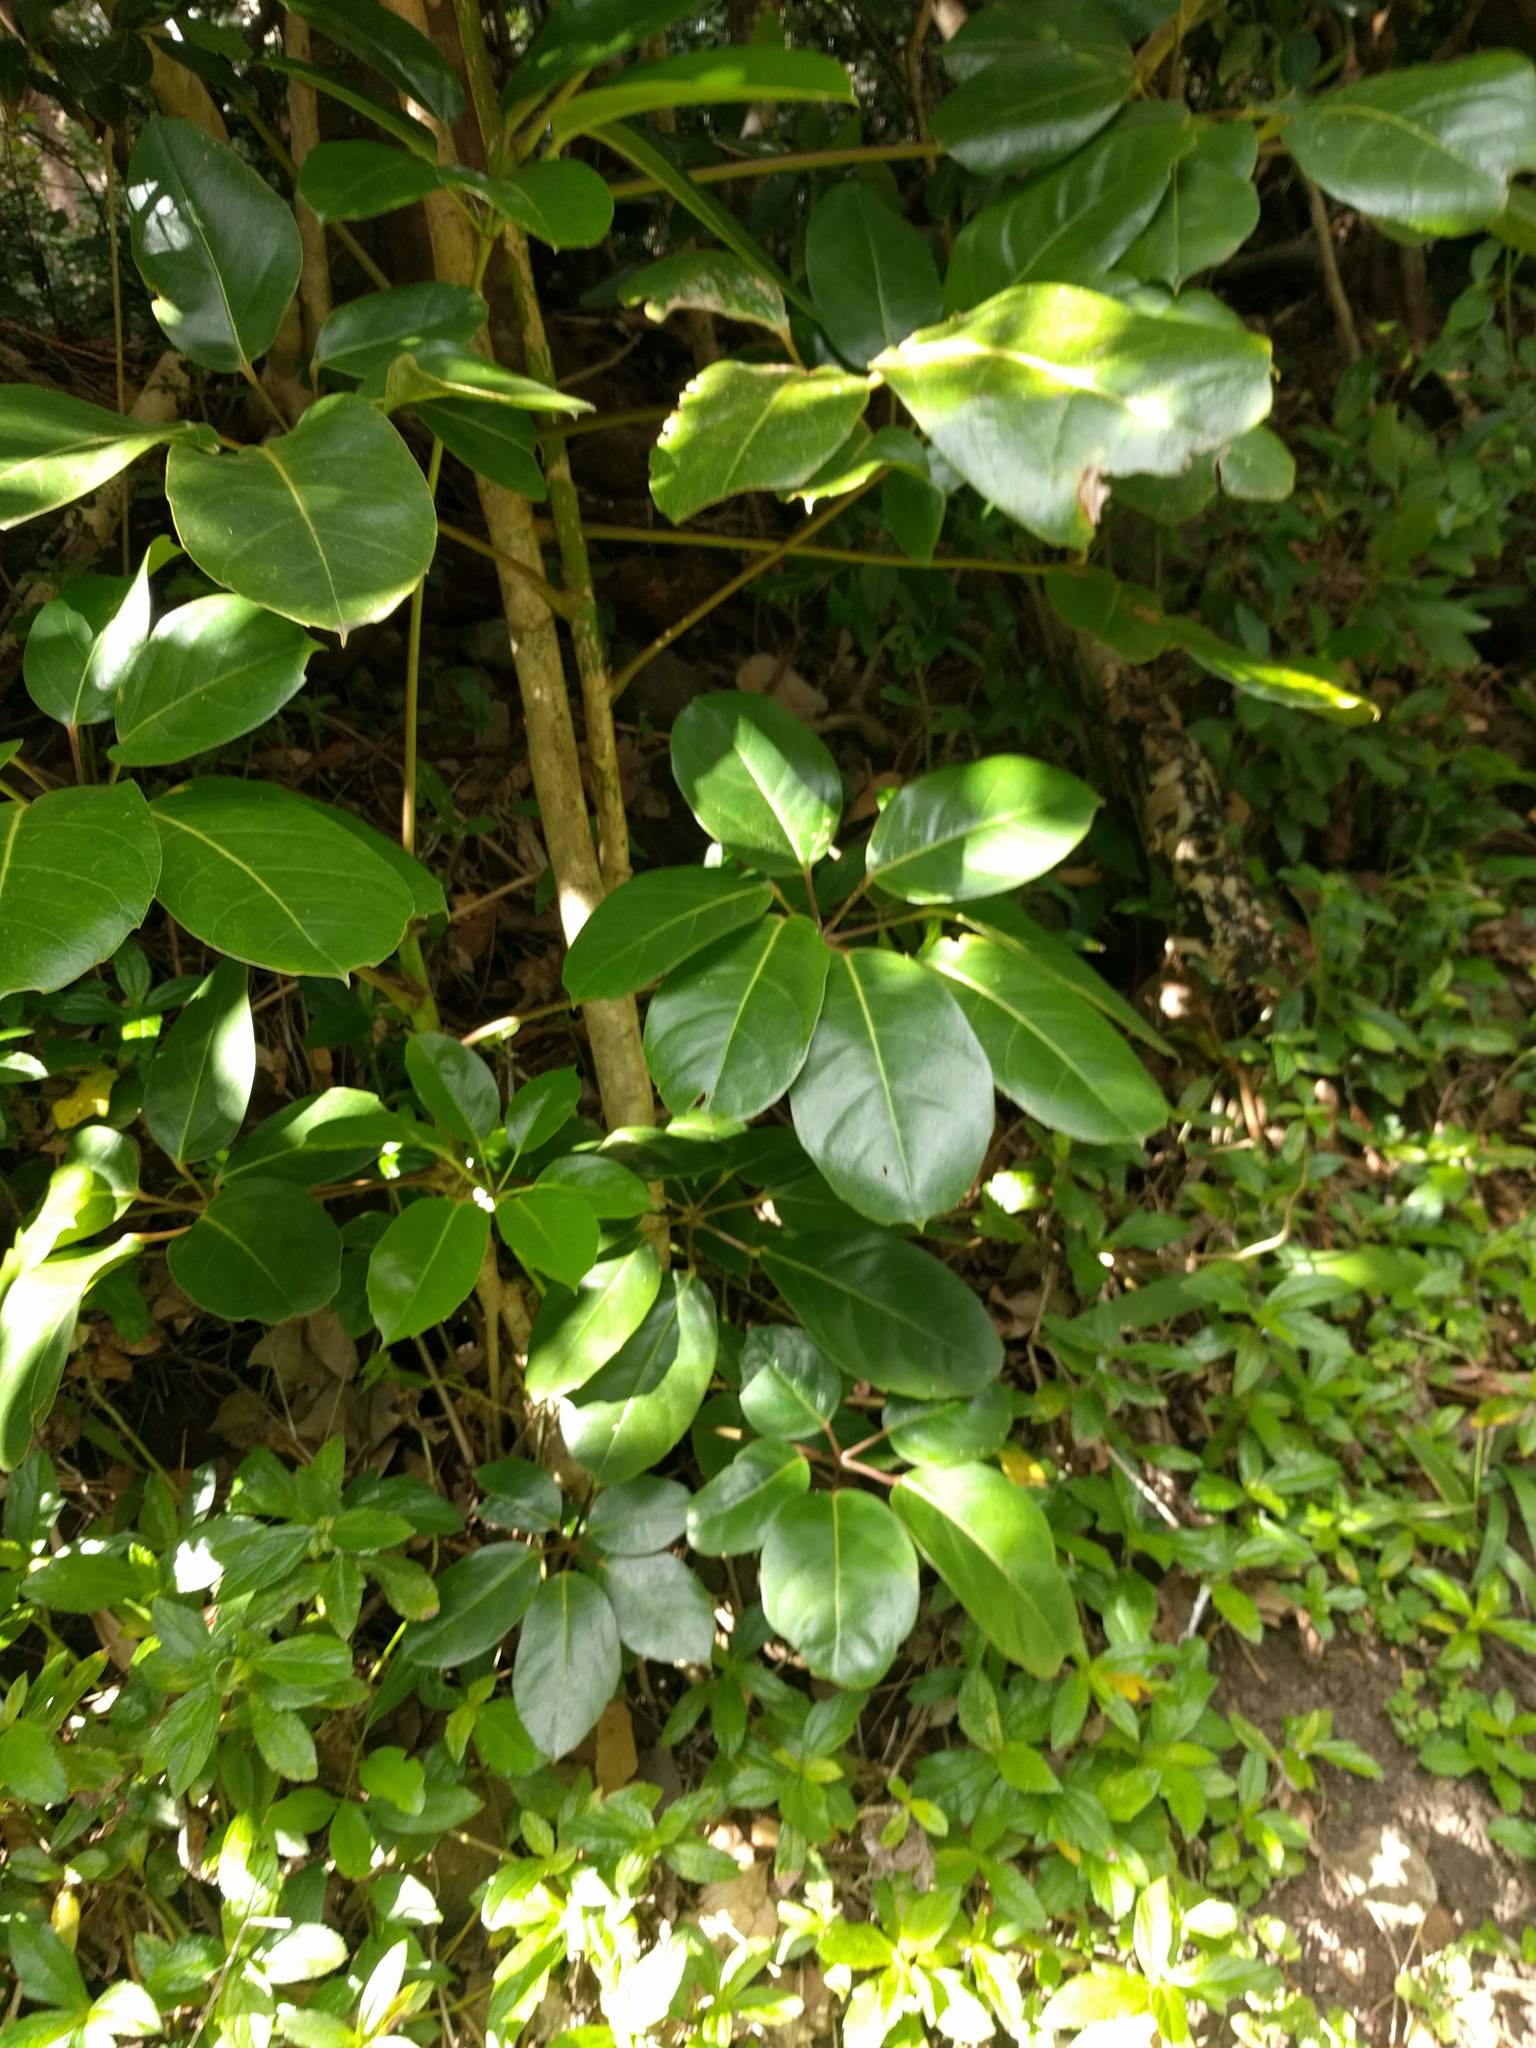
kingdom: Plantae
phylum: Tracheophyta
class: Magnoliopsida
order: Apiales
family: Araliaceae
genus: Heptapleurum
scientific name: Heptapleurum actinophyllum
